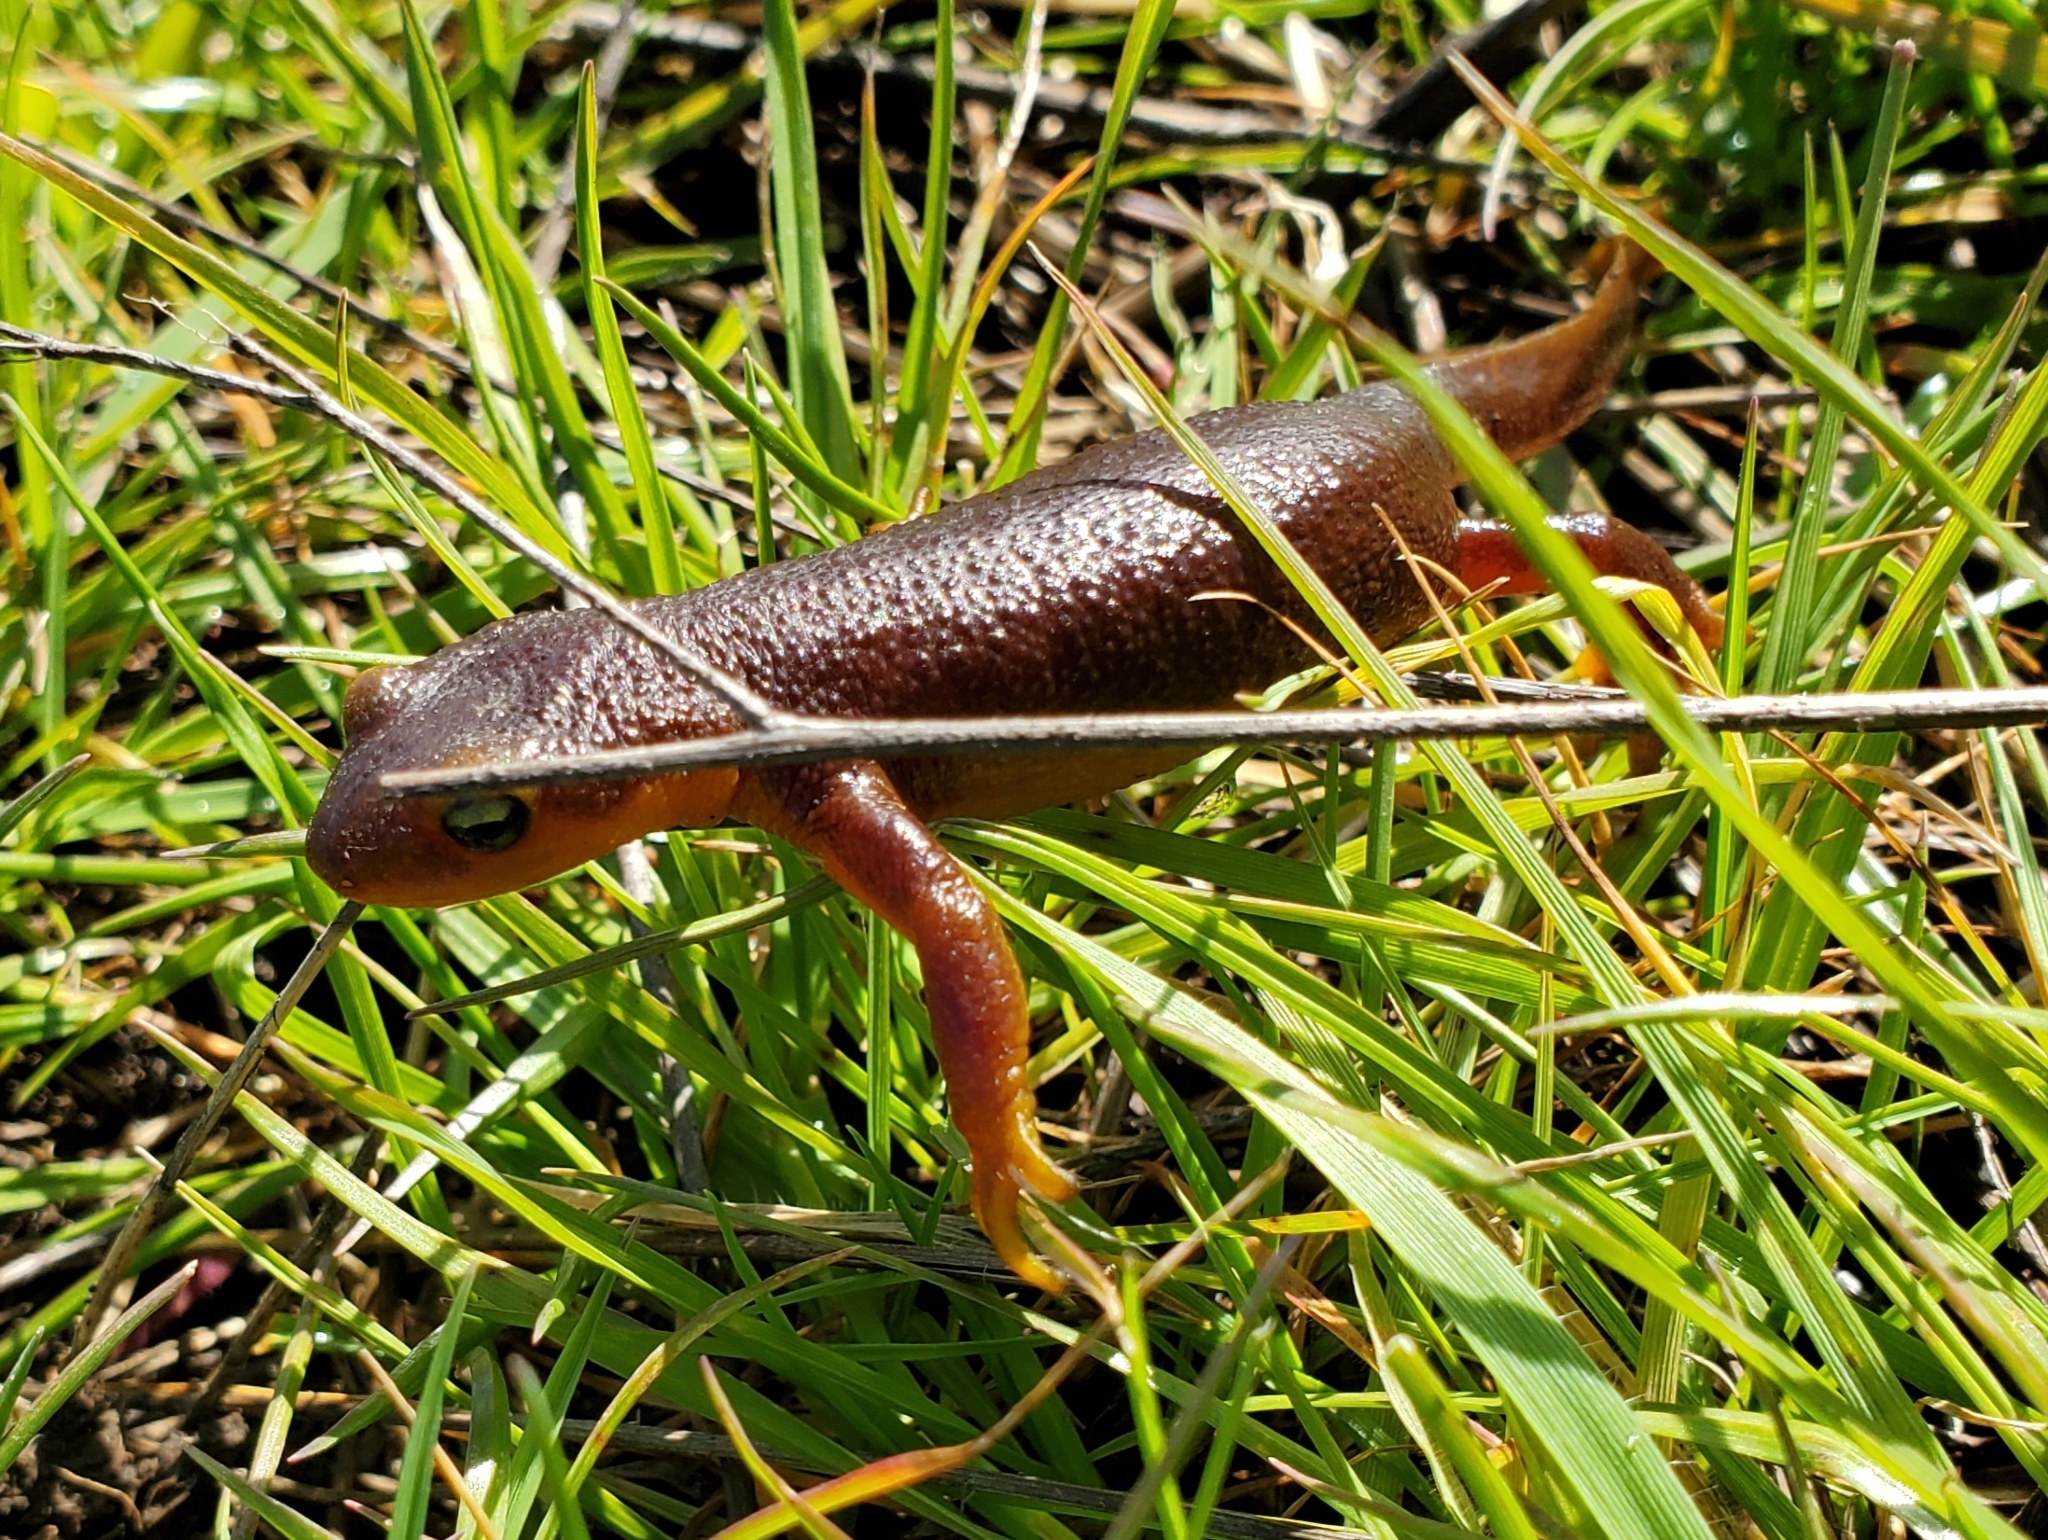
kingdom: Animalia
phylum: Chordata
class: Amphibia
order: Caudata
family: Salamandridae
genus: Taricha
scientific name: Taricha torosa
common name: California newt
